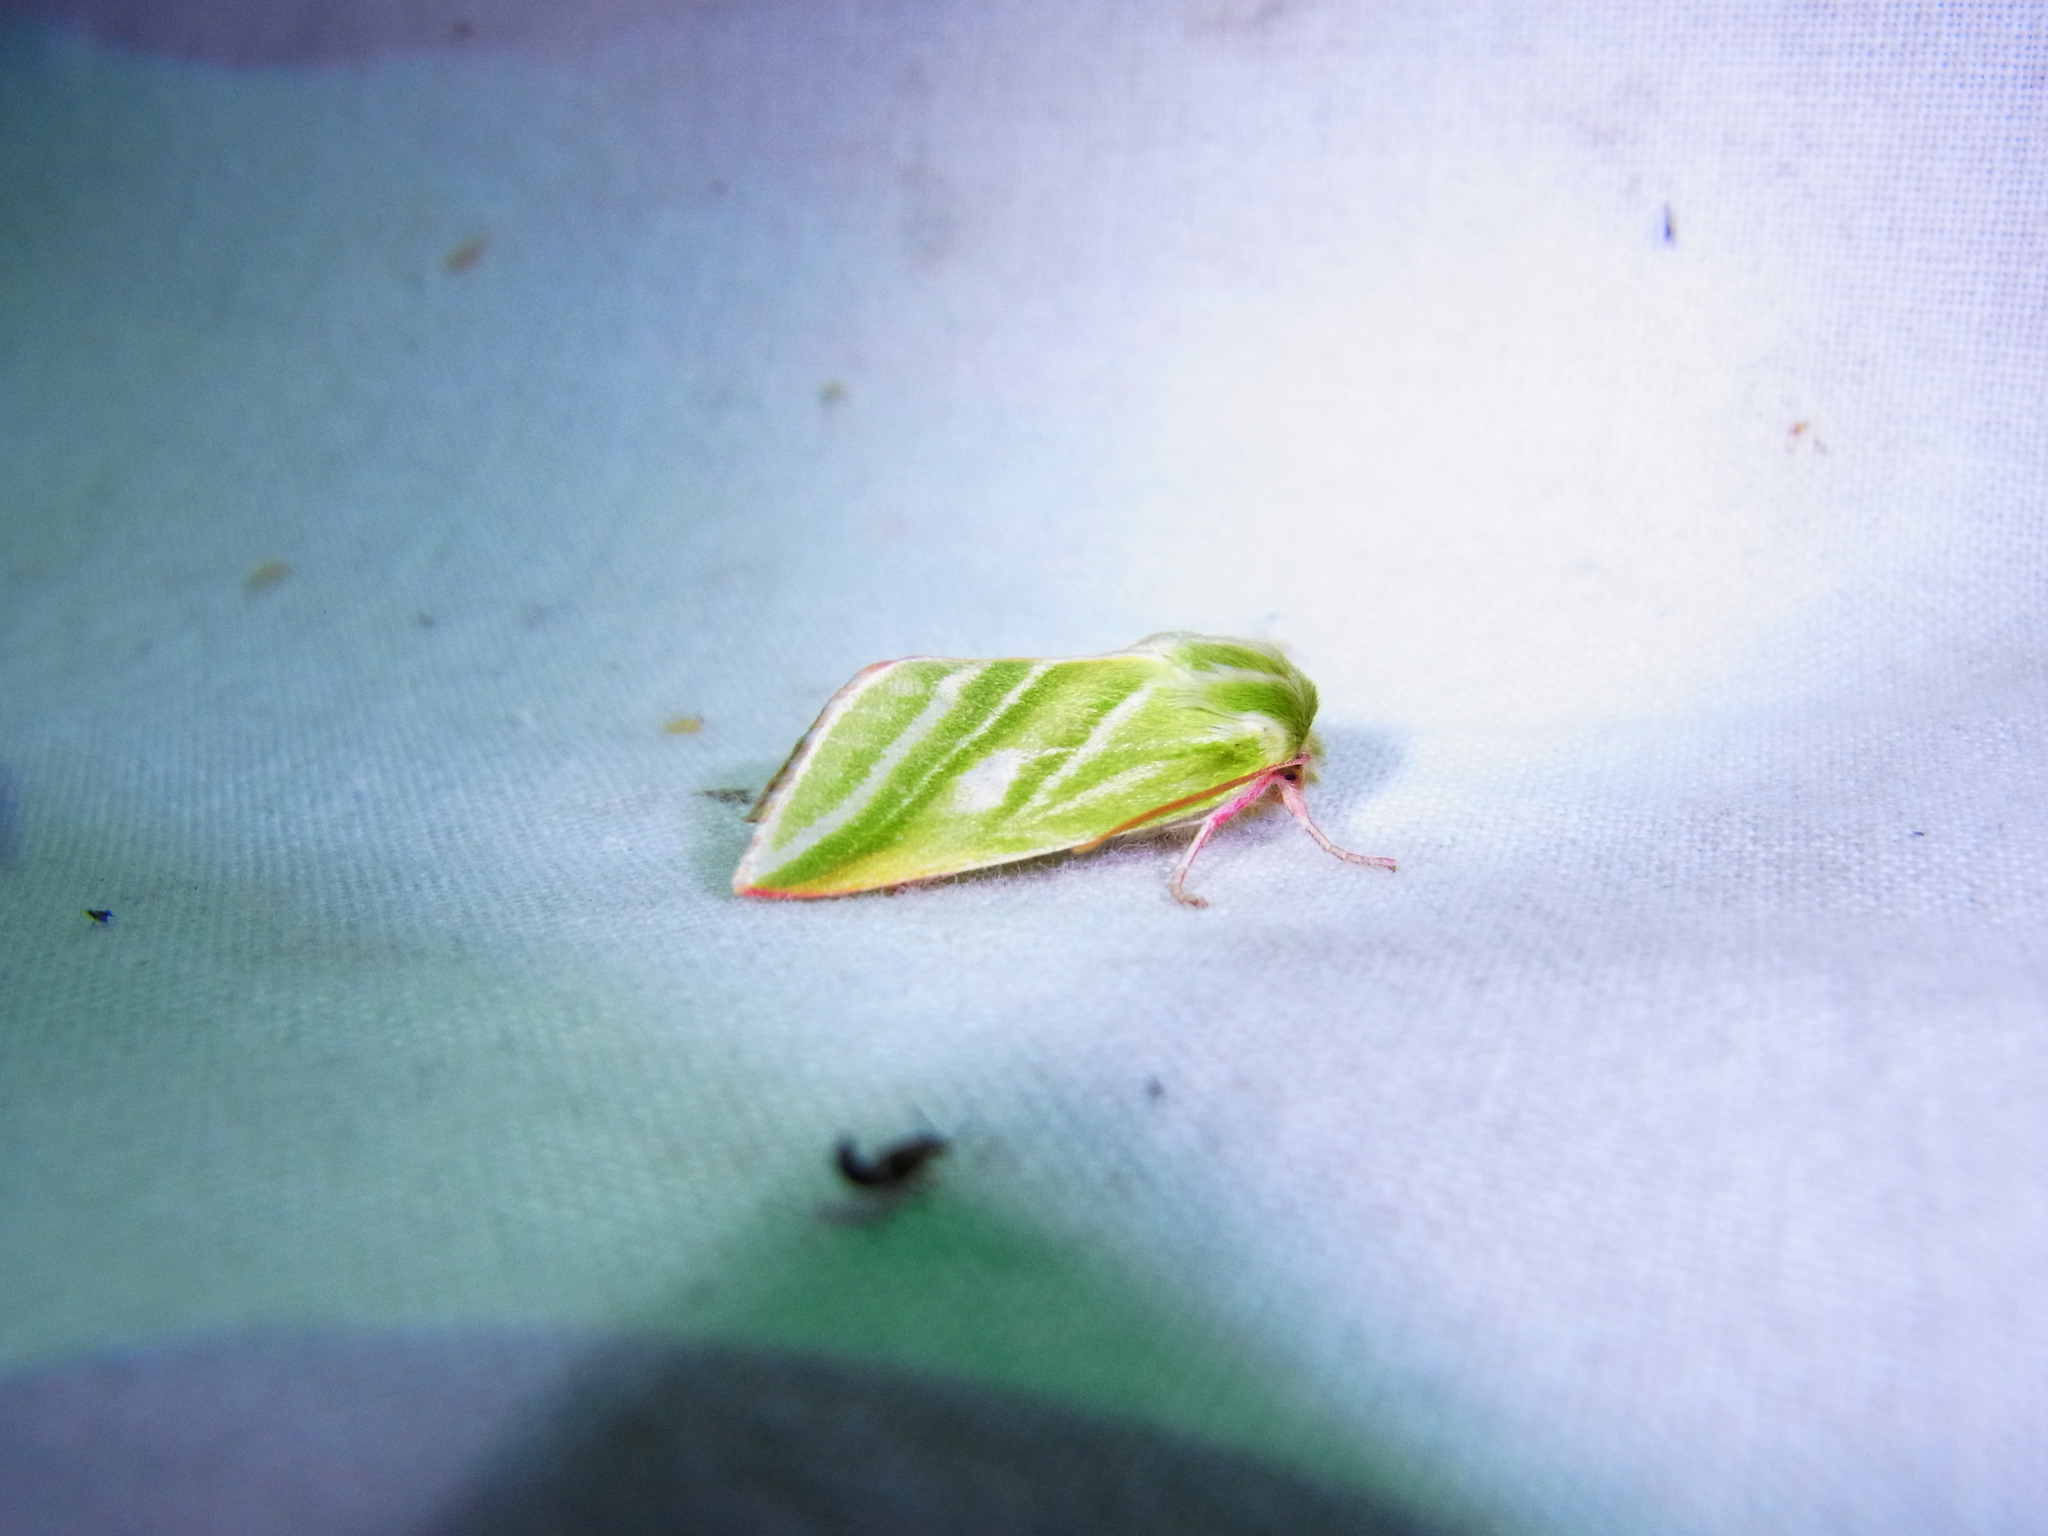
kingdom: Animalia
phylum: Arthropoda
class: Insecta
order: Lepidoptera
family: Nolidae
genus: Pseudoips
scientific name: Pseudoips sylpha
